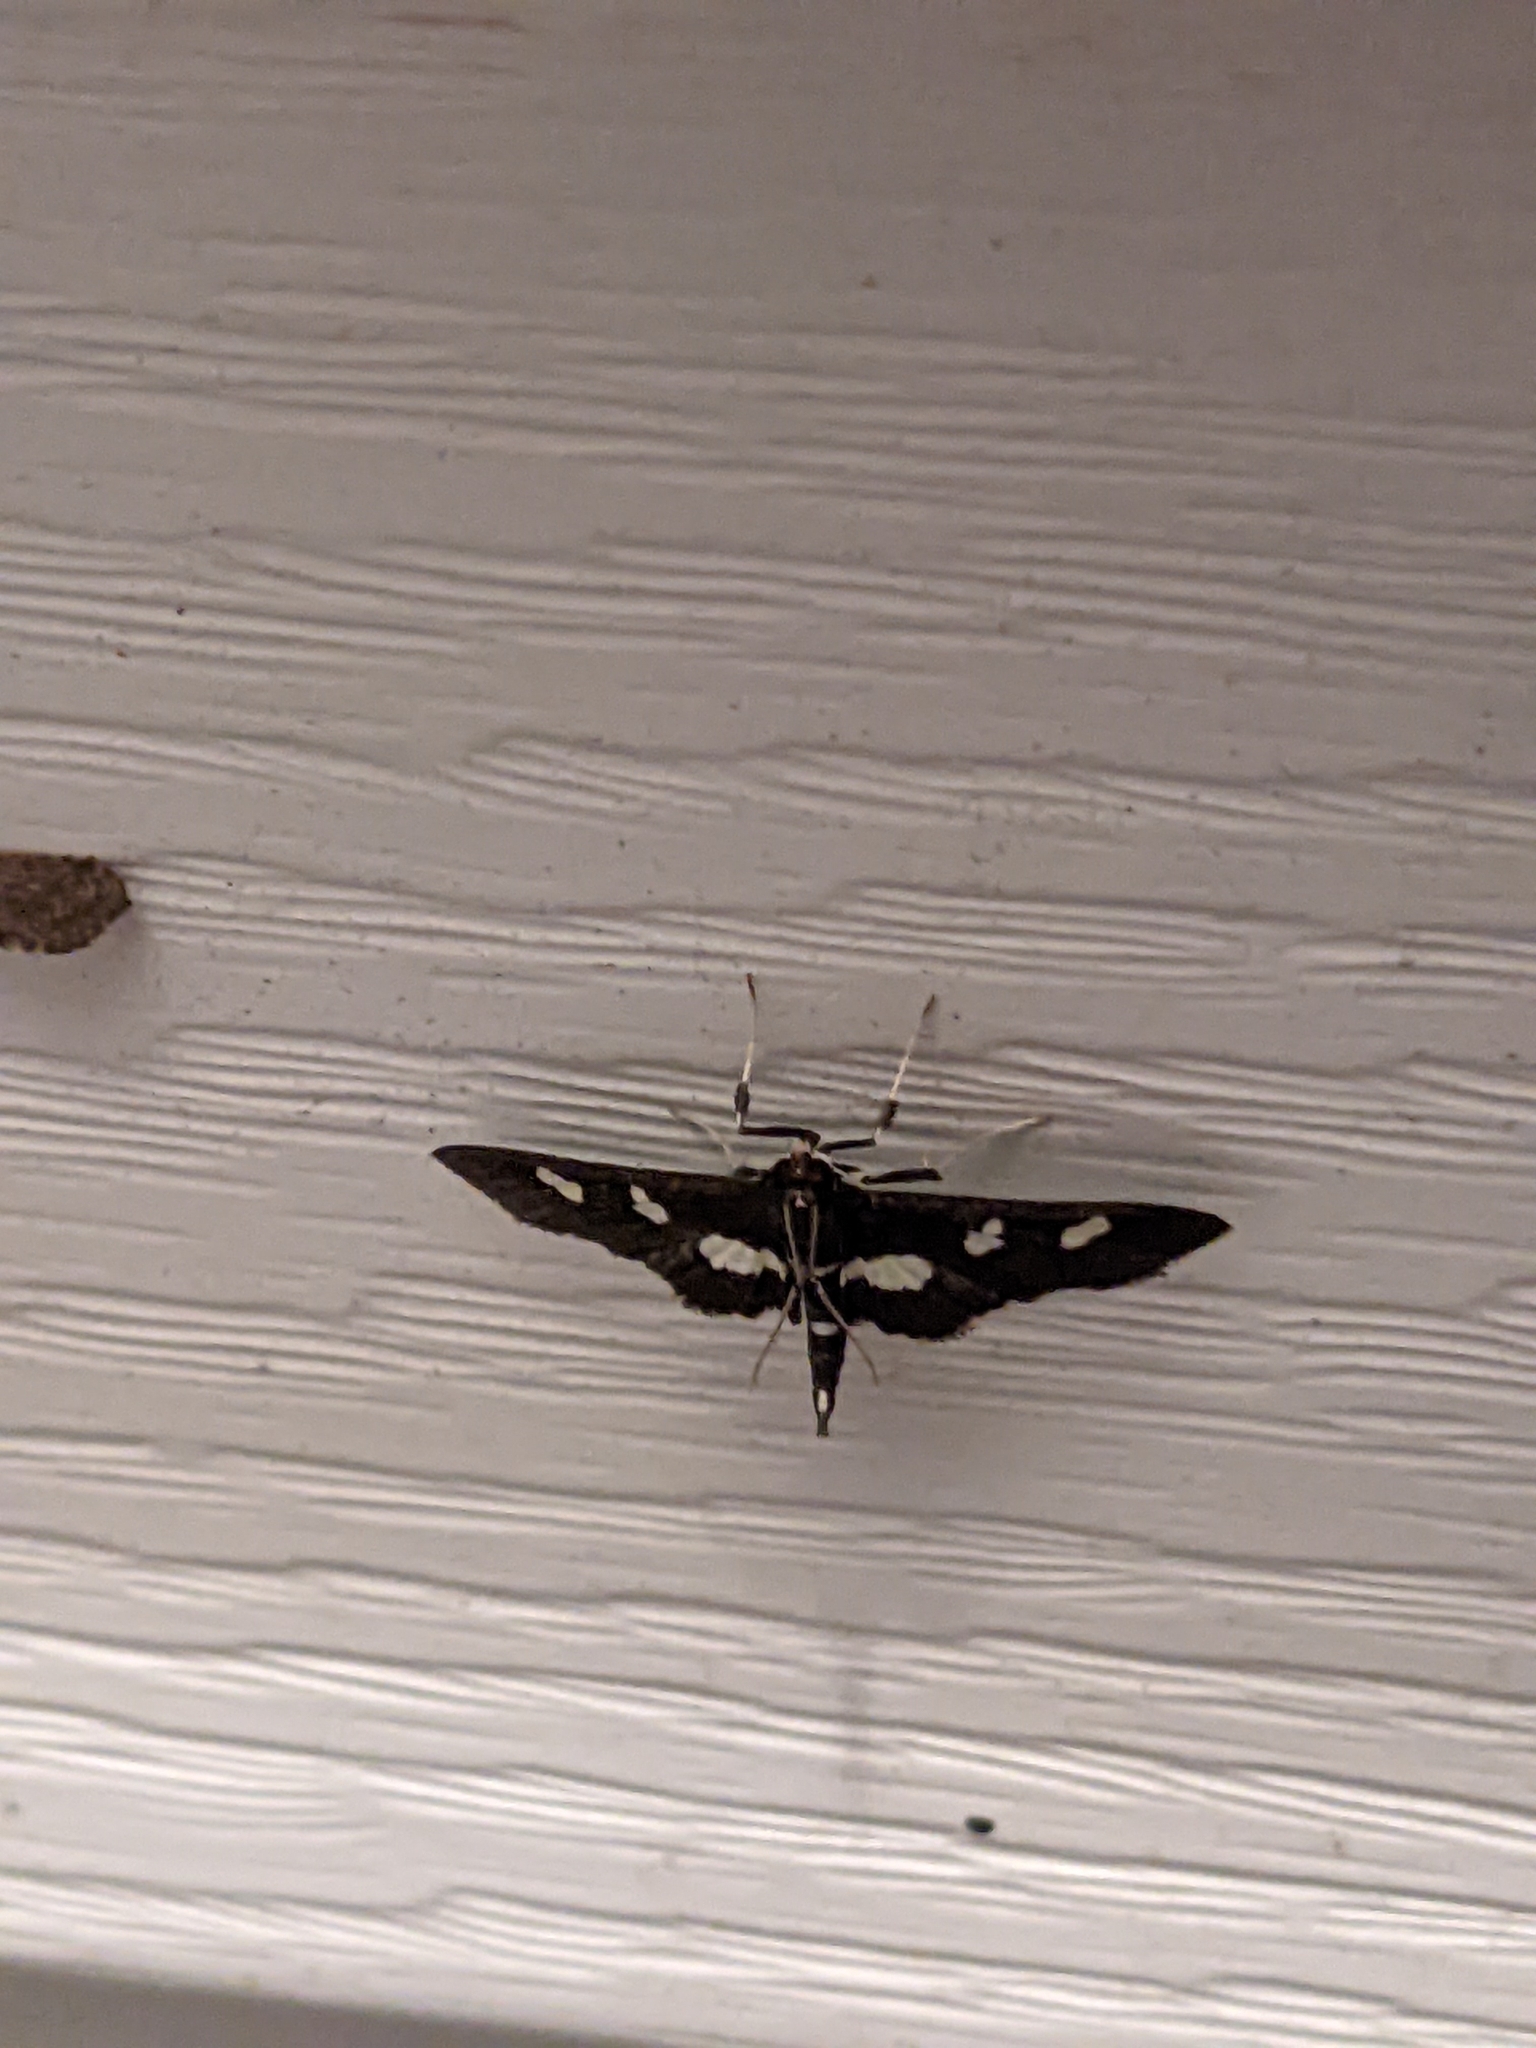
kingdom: Animalia
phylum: Arthropoda
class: Insecta
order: Lepidoptera
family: Crambidae
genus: Desmia
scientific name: Desmia
